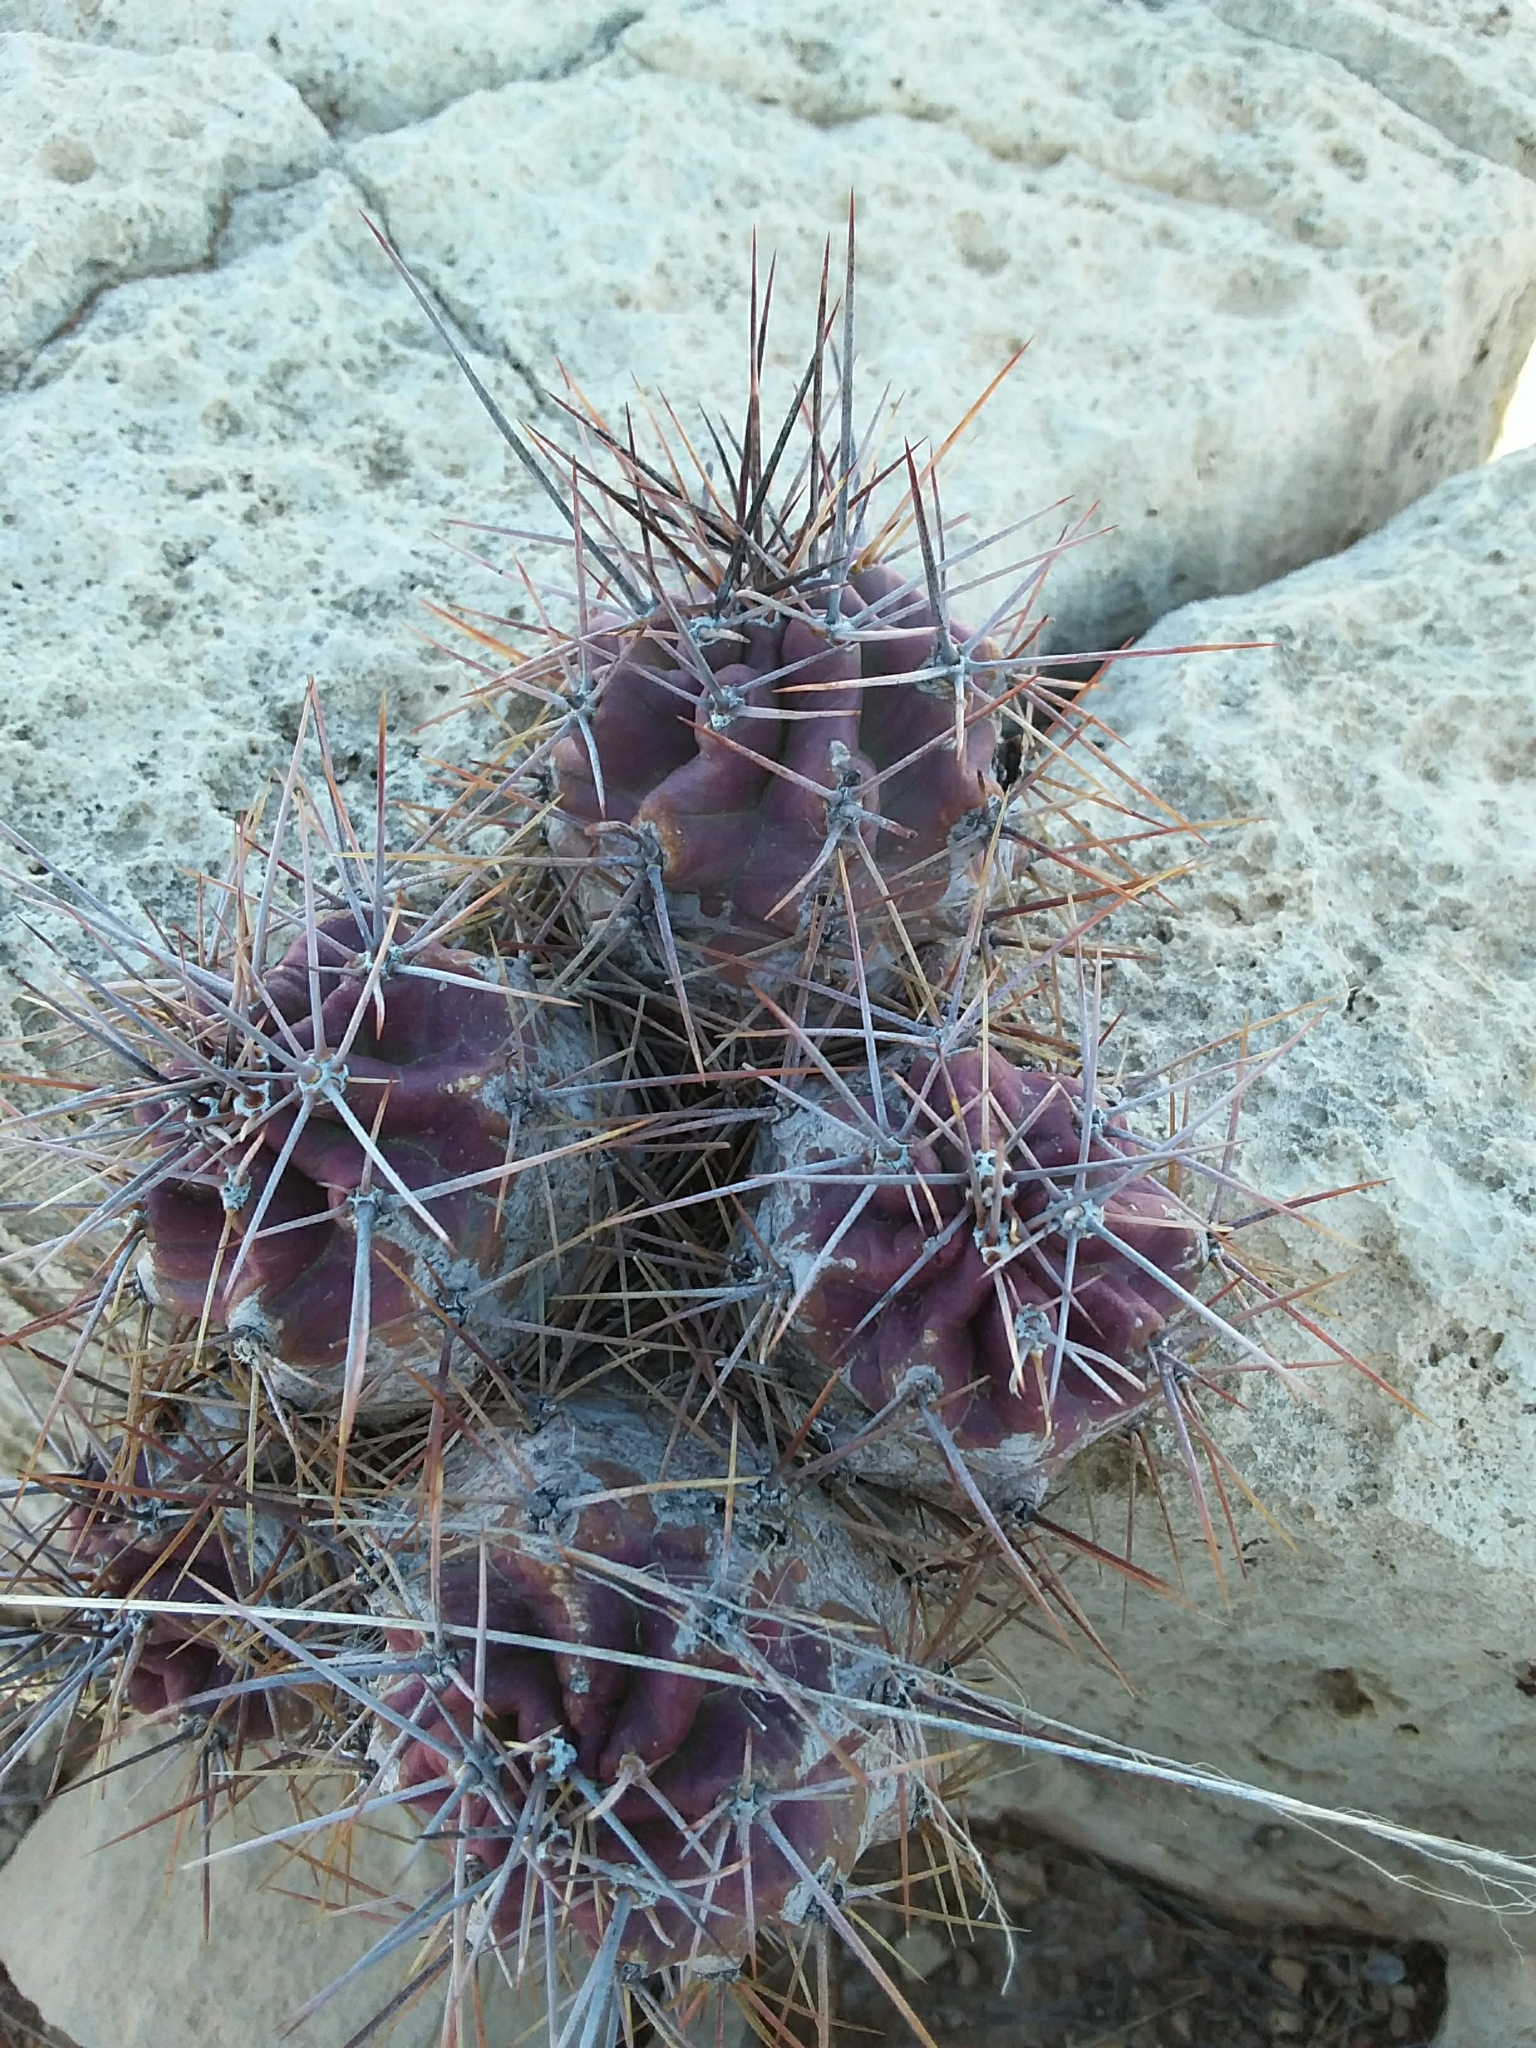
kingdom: Plantae
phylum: Tracheophyta
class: Magnoliopsida
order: Caryophyllales
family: Cactaceae
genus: Echinocereus
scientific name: Echinocereus coccineus
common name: Scarlet hedgehog cactus
